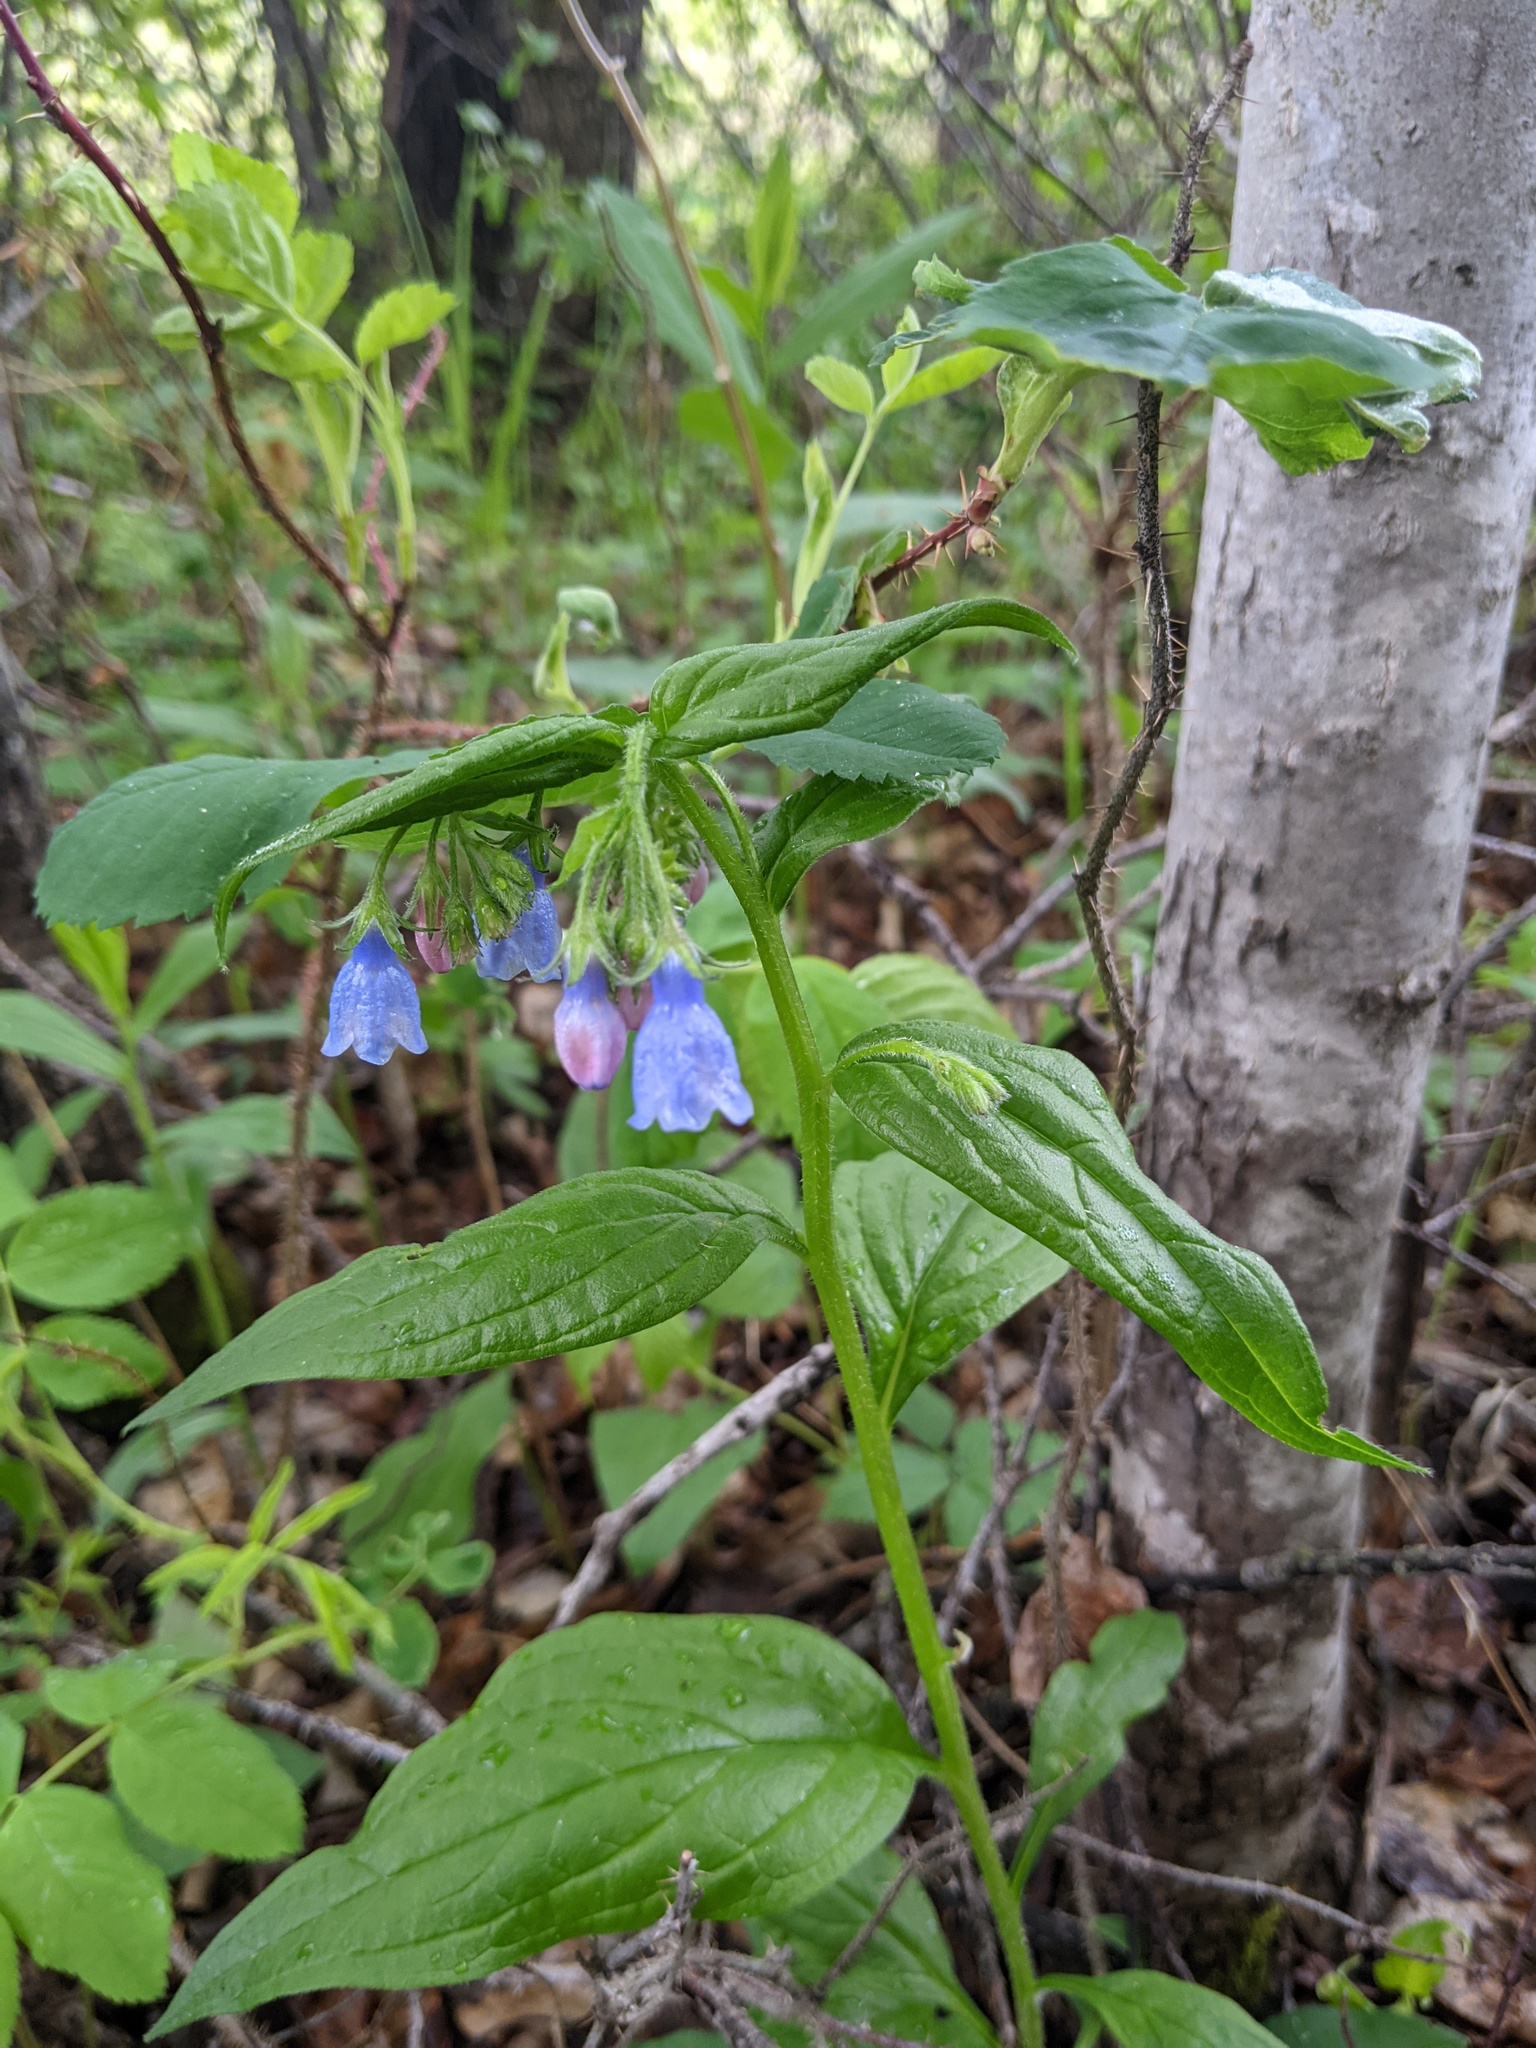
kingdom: Plantae
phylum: Tracheophyta
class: Magnoliopsida
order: Boraginales
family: Boraginaceae
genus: Mertensia
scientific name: Mertensia paniculata
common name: Panicled bluebells
